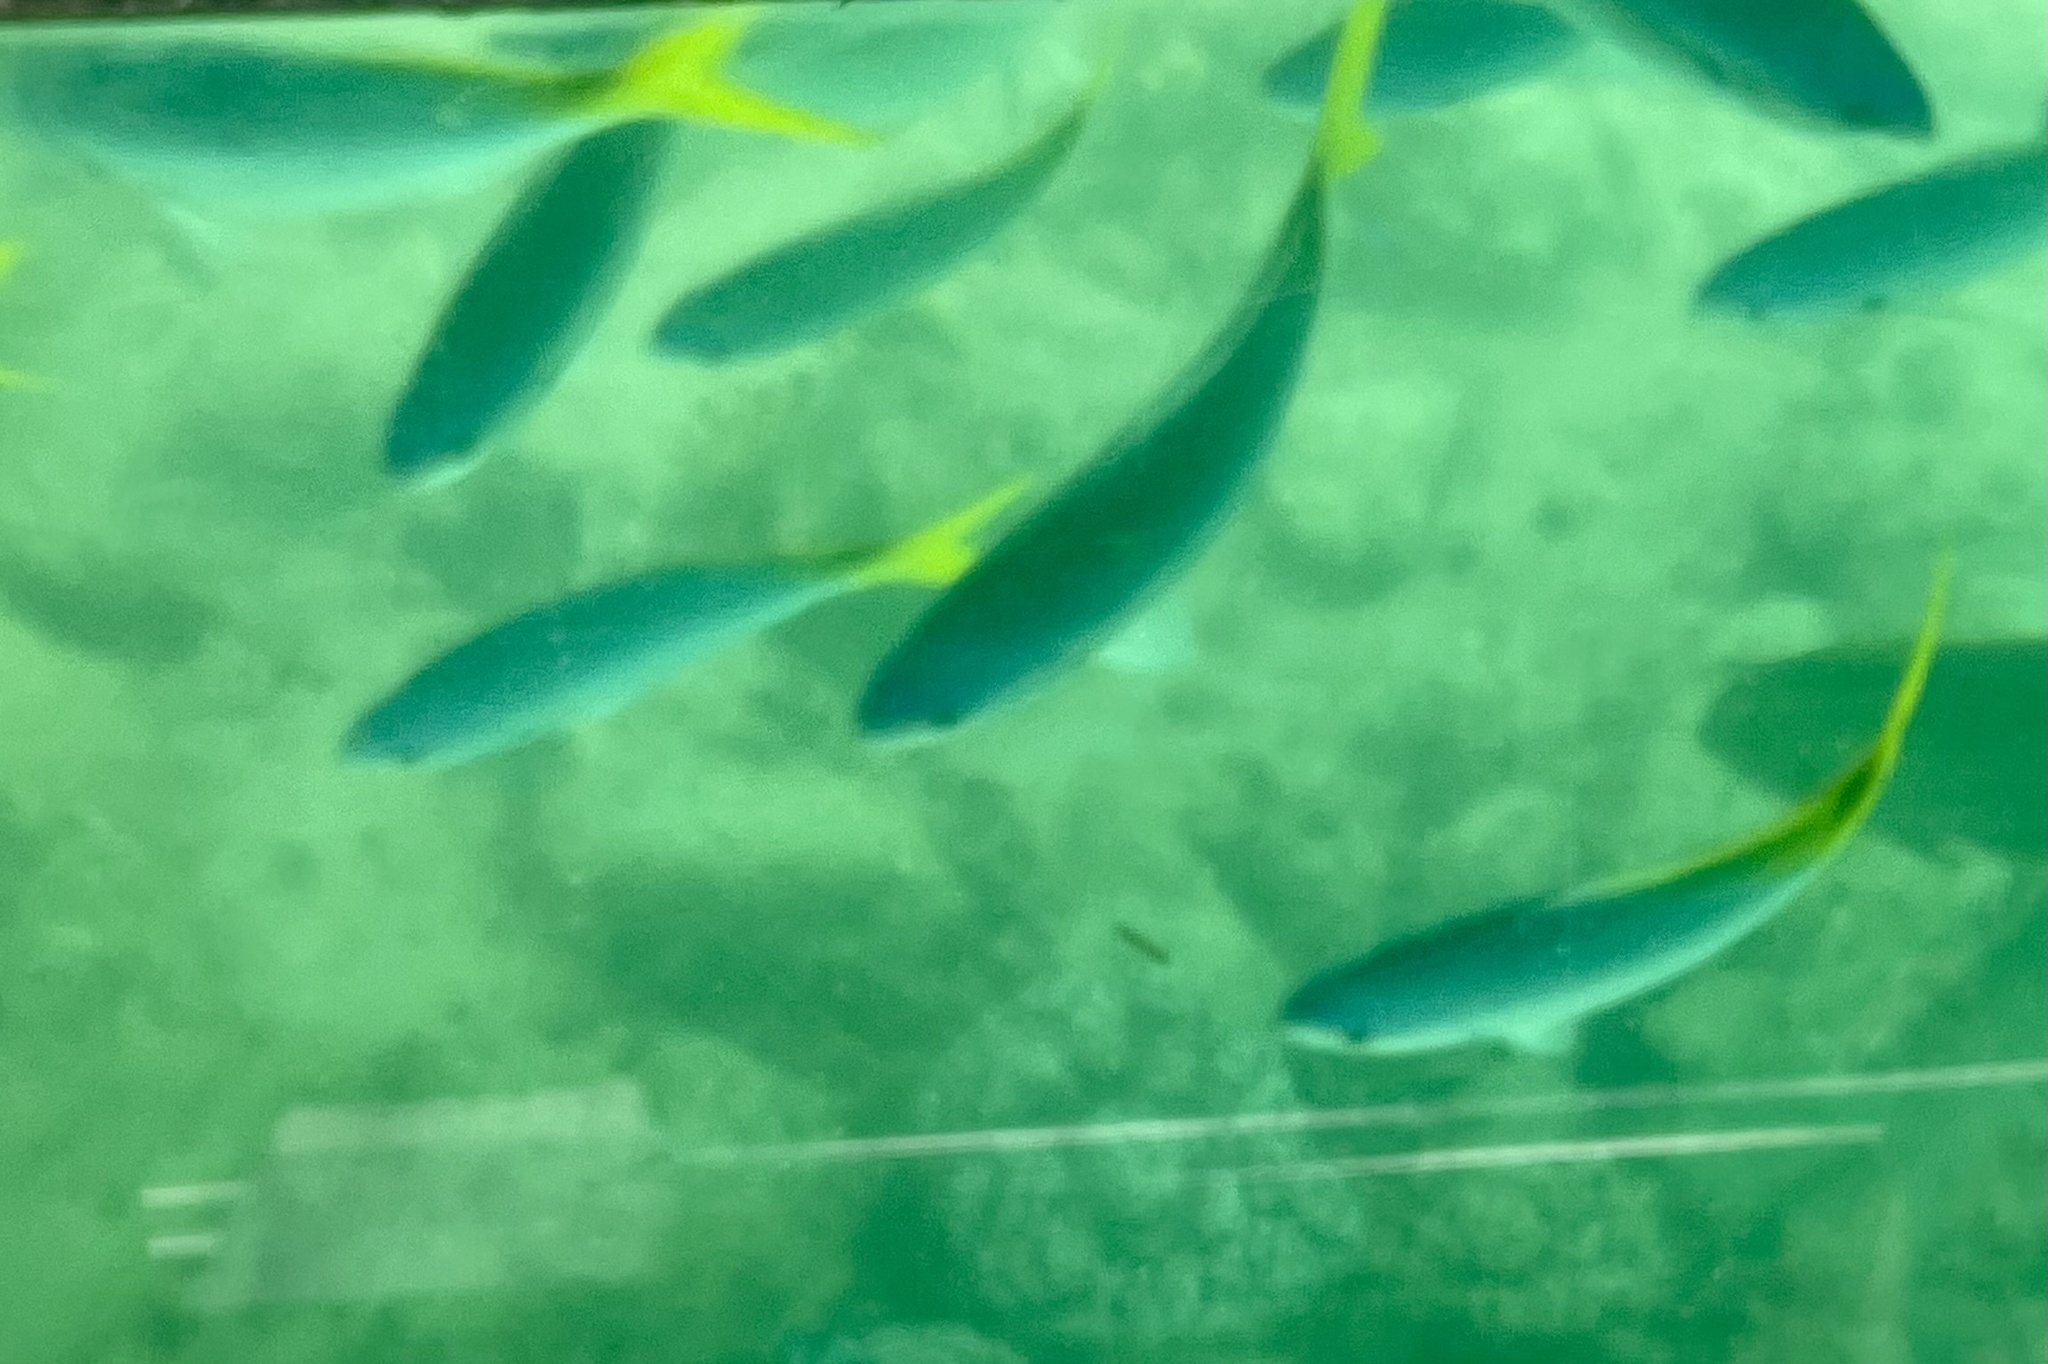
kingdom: Animalia
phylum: Chordata
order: Perciformes
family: Caesionidae
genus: Caesio
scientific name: Caesio cuning
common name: Red-bellied fusilier
